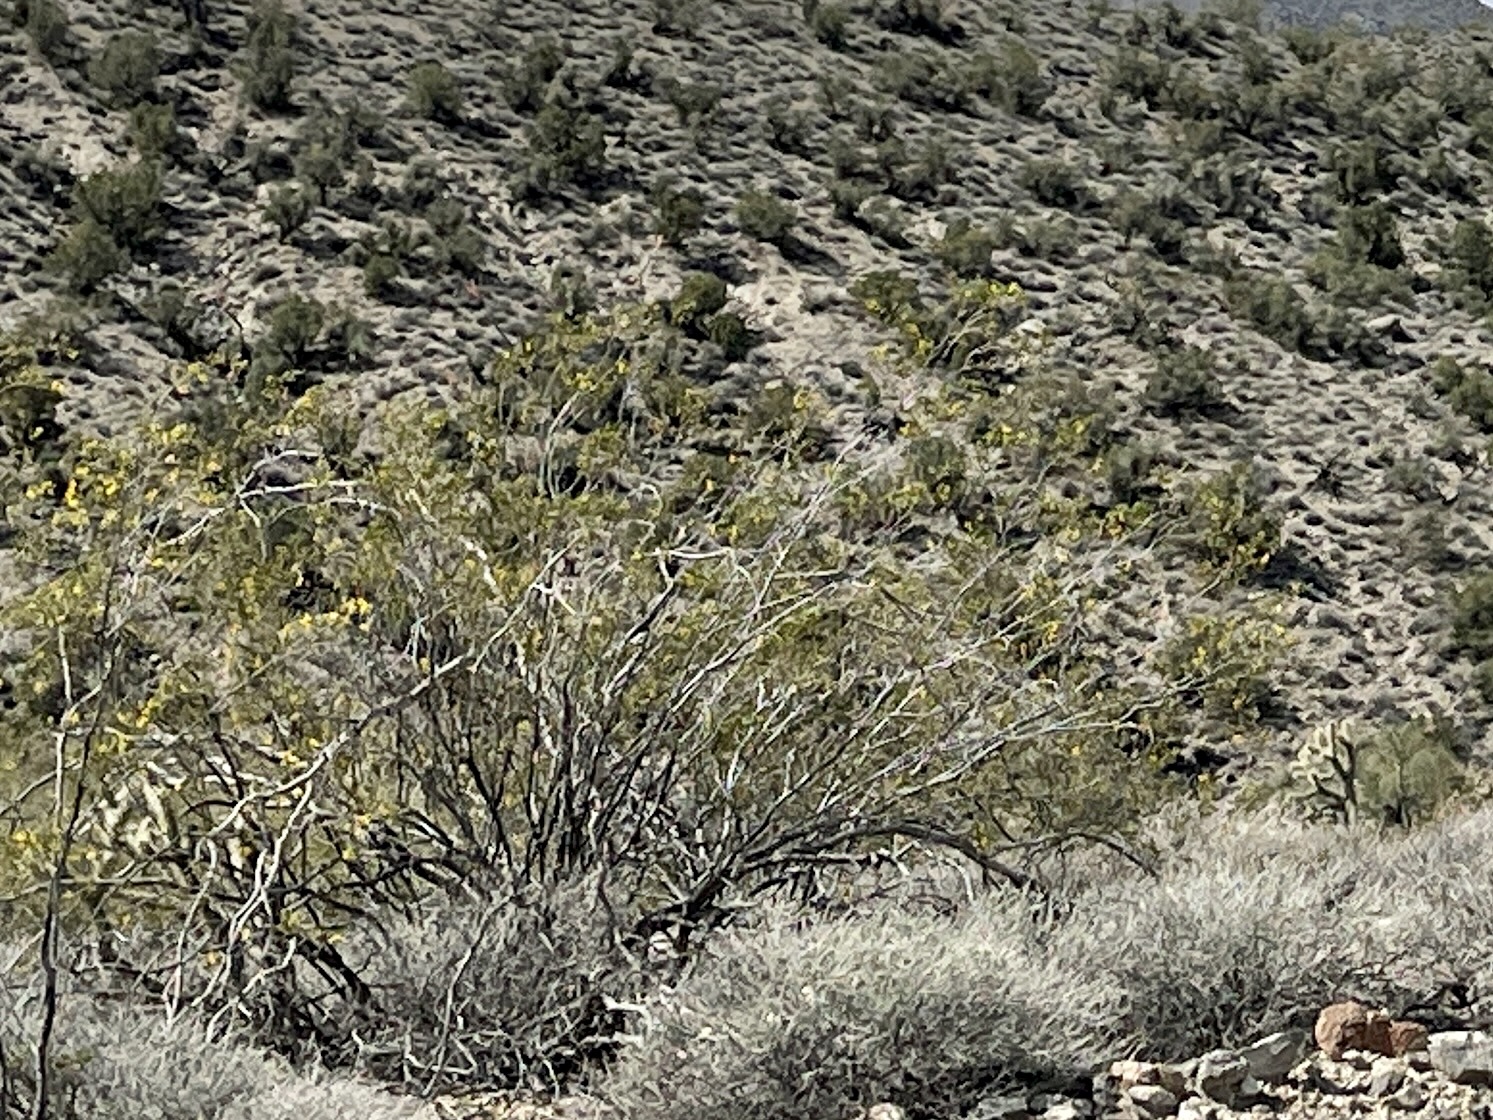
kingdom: Plantae
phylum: Tracheophyta
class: Magnoliopsida
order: Zygophyllales
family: Zygophyllaceae
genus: Larrea
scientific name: Larrea tridentata
